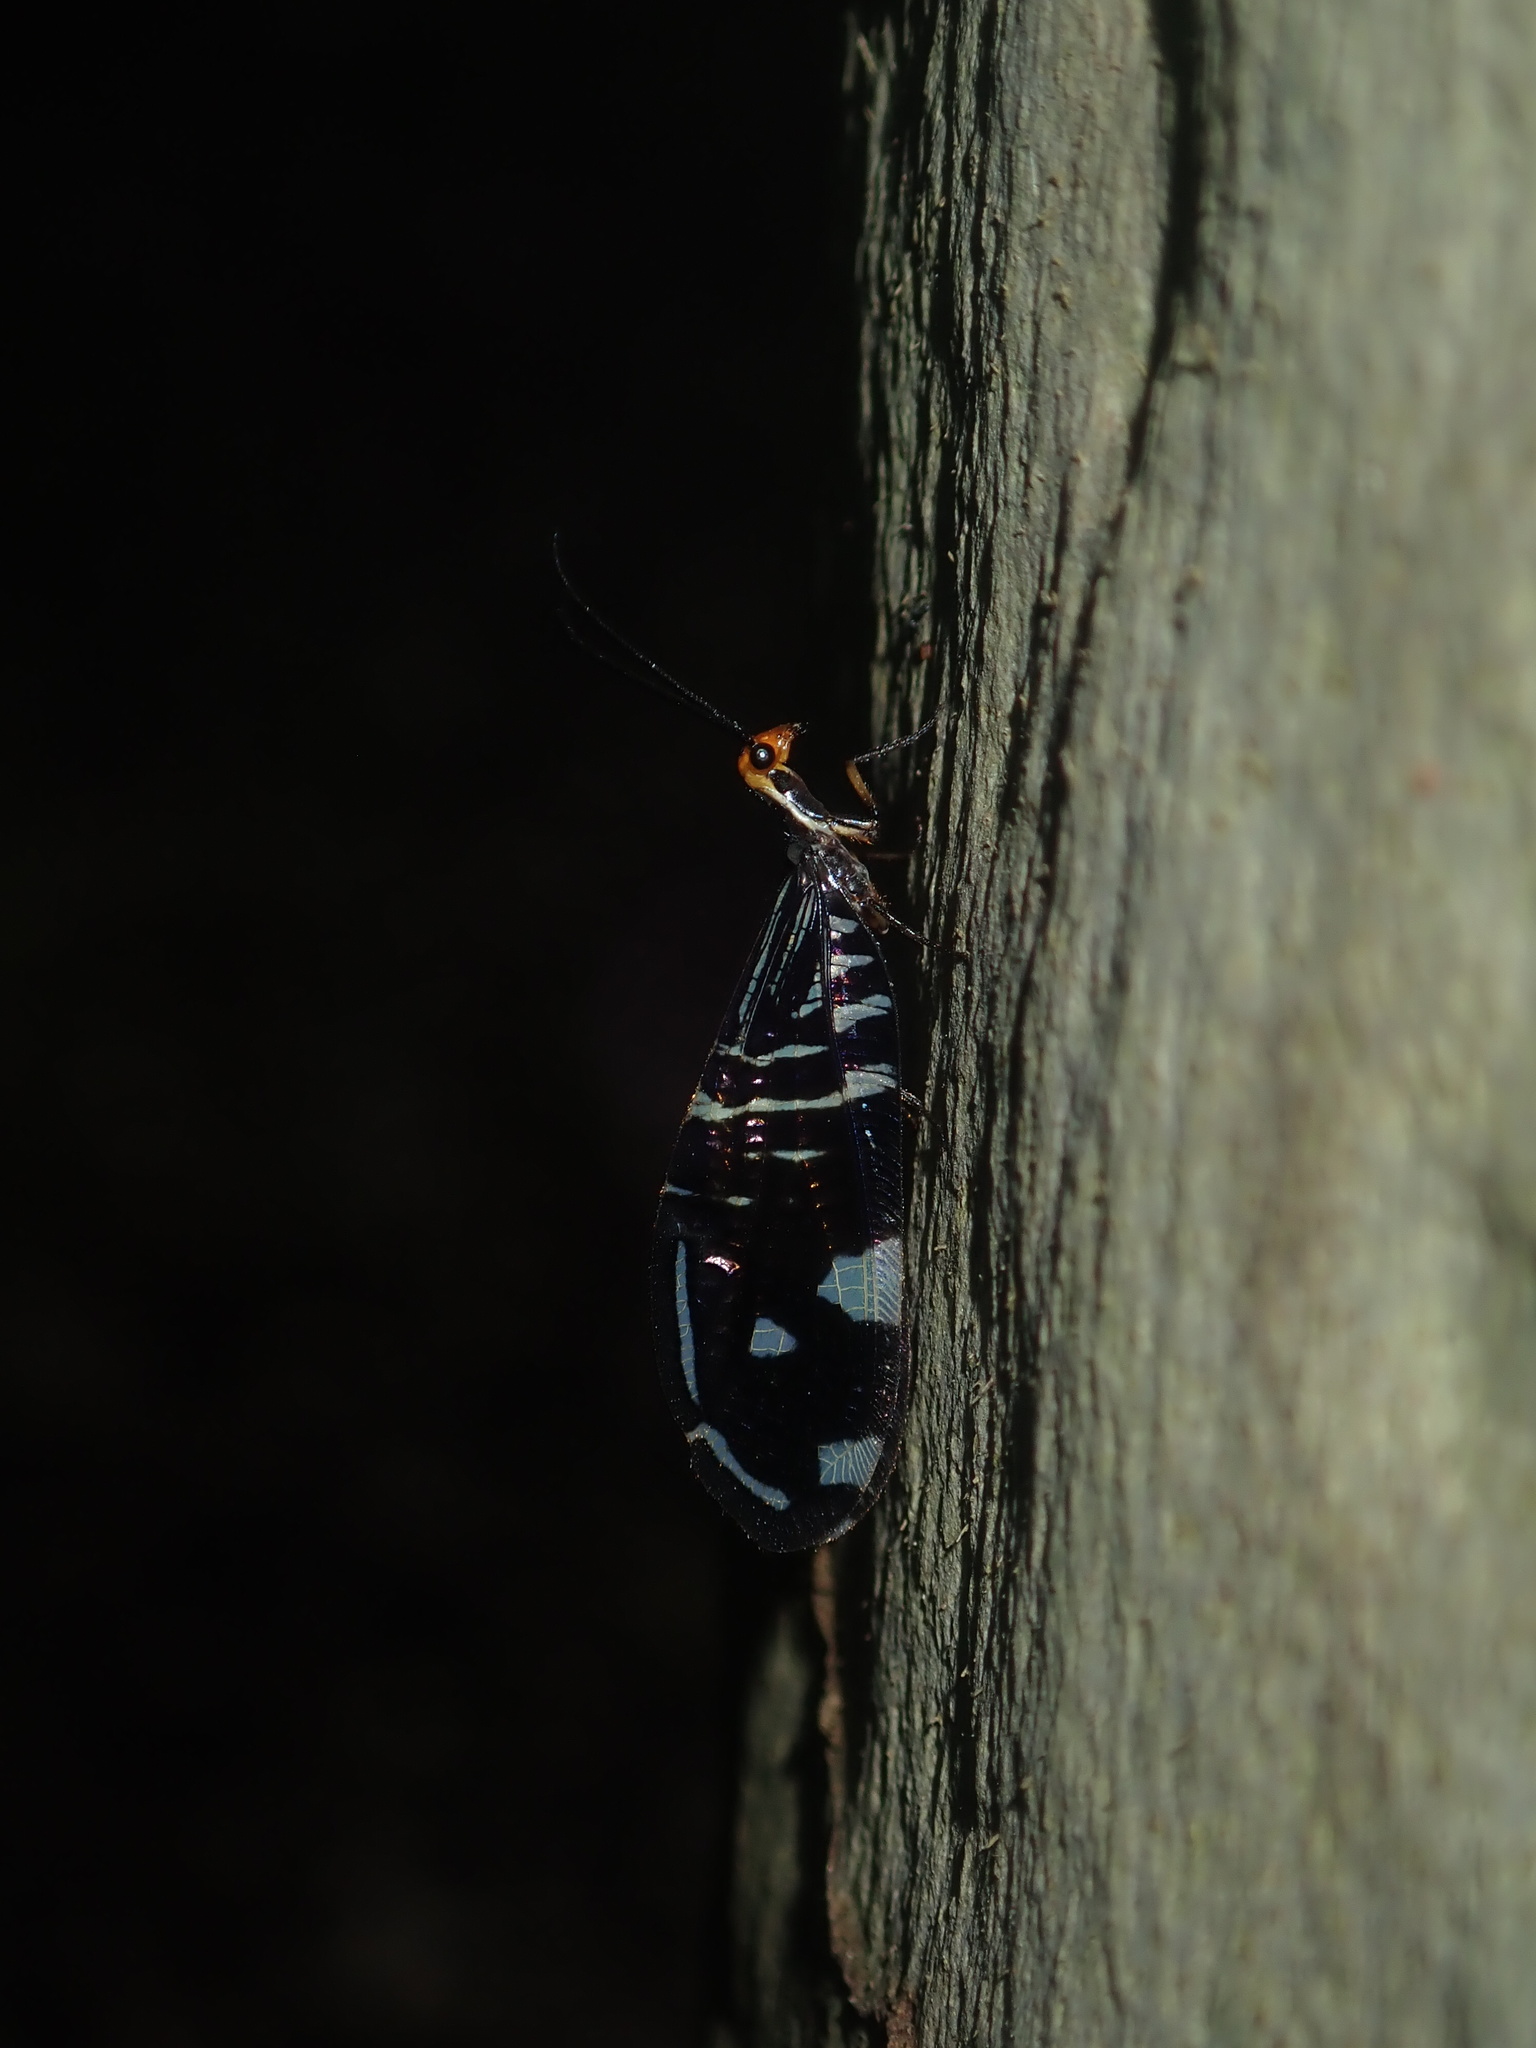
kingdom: Animalia
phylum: Arthropoda
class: Insecta
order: Neuroptera
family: Osmylidae
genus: Porismus
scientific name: Porismus strigatus
